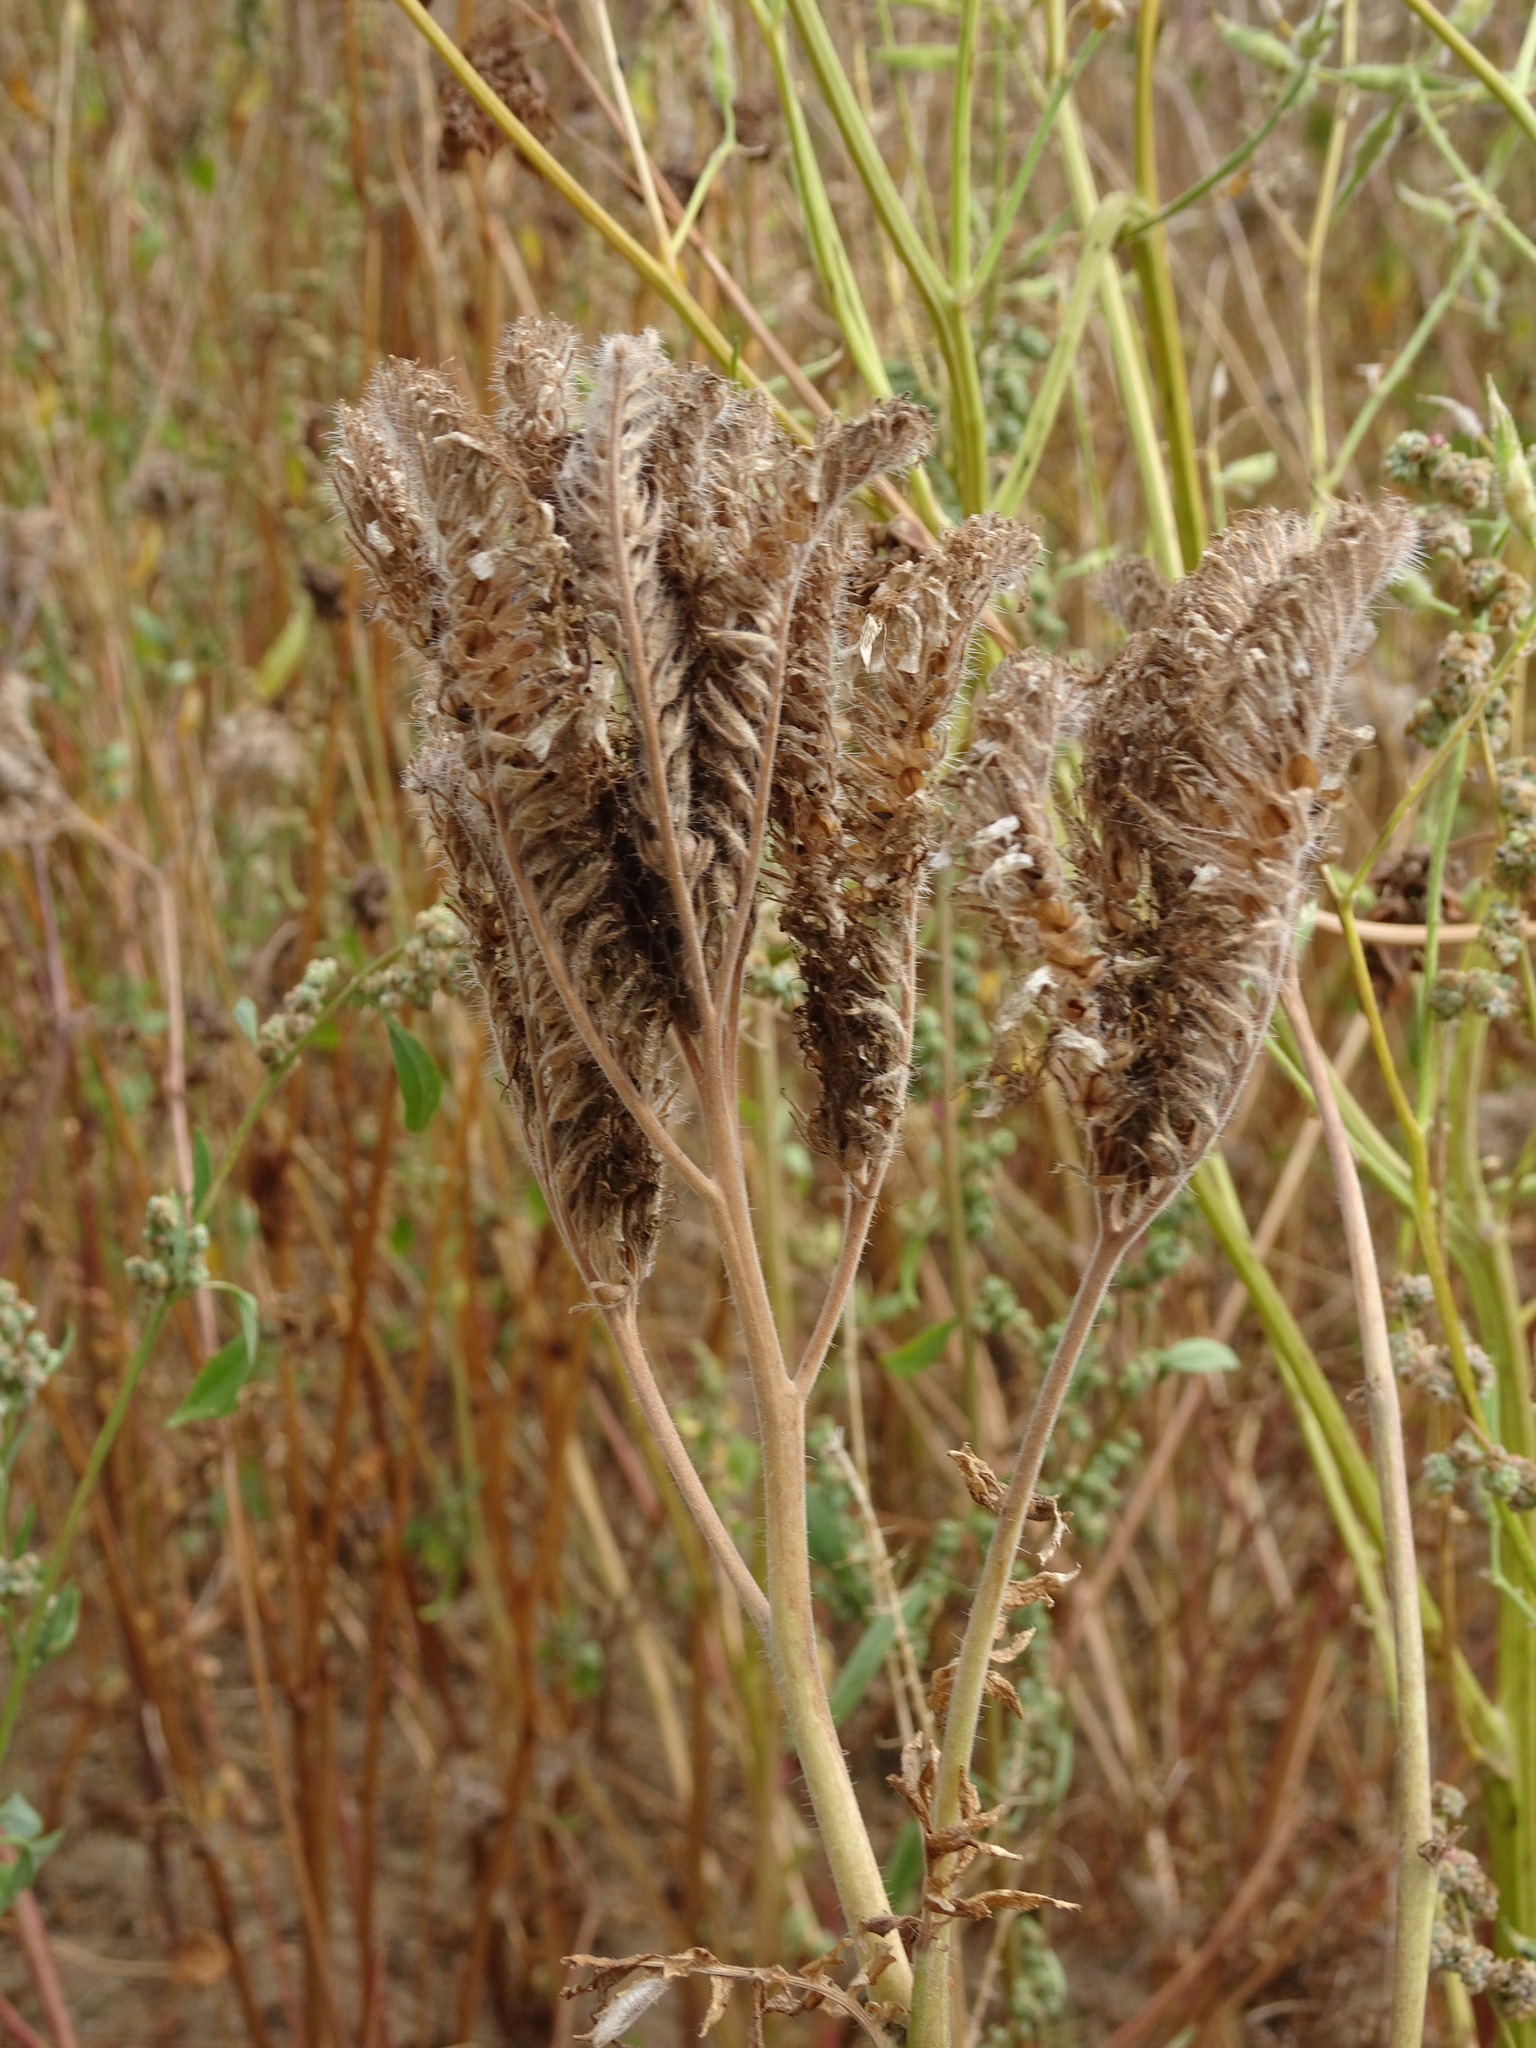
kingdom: Plantae
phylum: Tracheophyta
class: Magnoliopsida
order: Boraginales
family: Hydrophyllaceae
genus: Phacelia
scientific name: Phacelia tanacetifolia
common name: Phacelia
